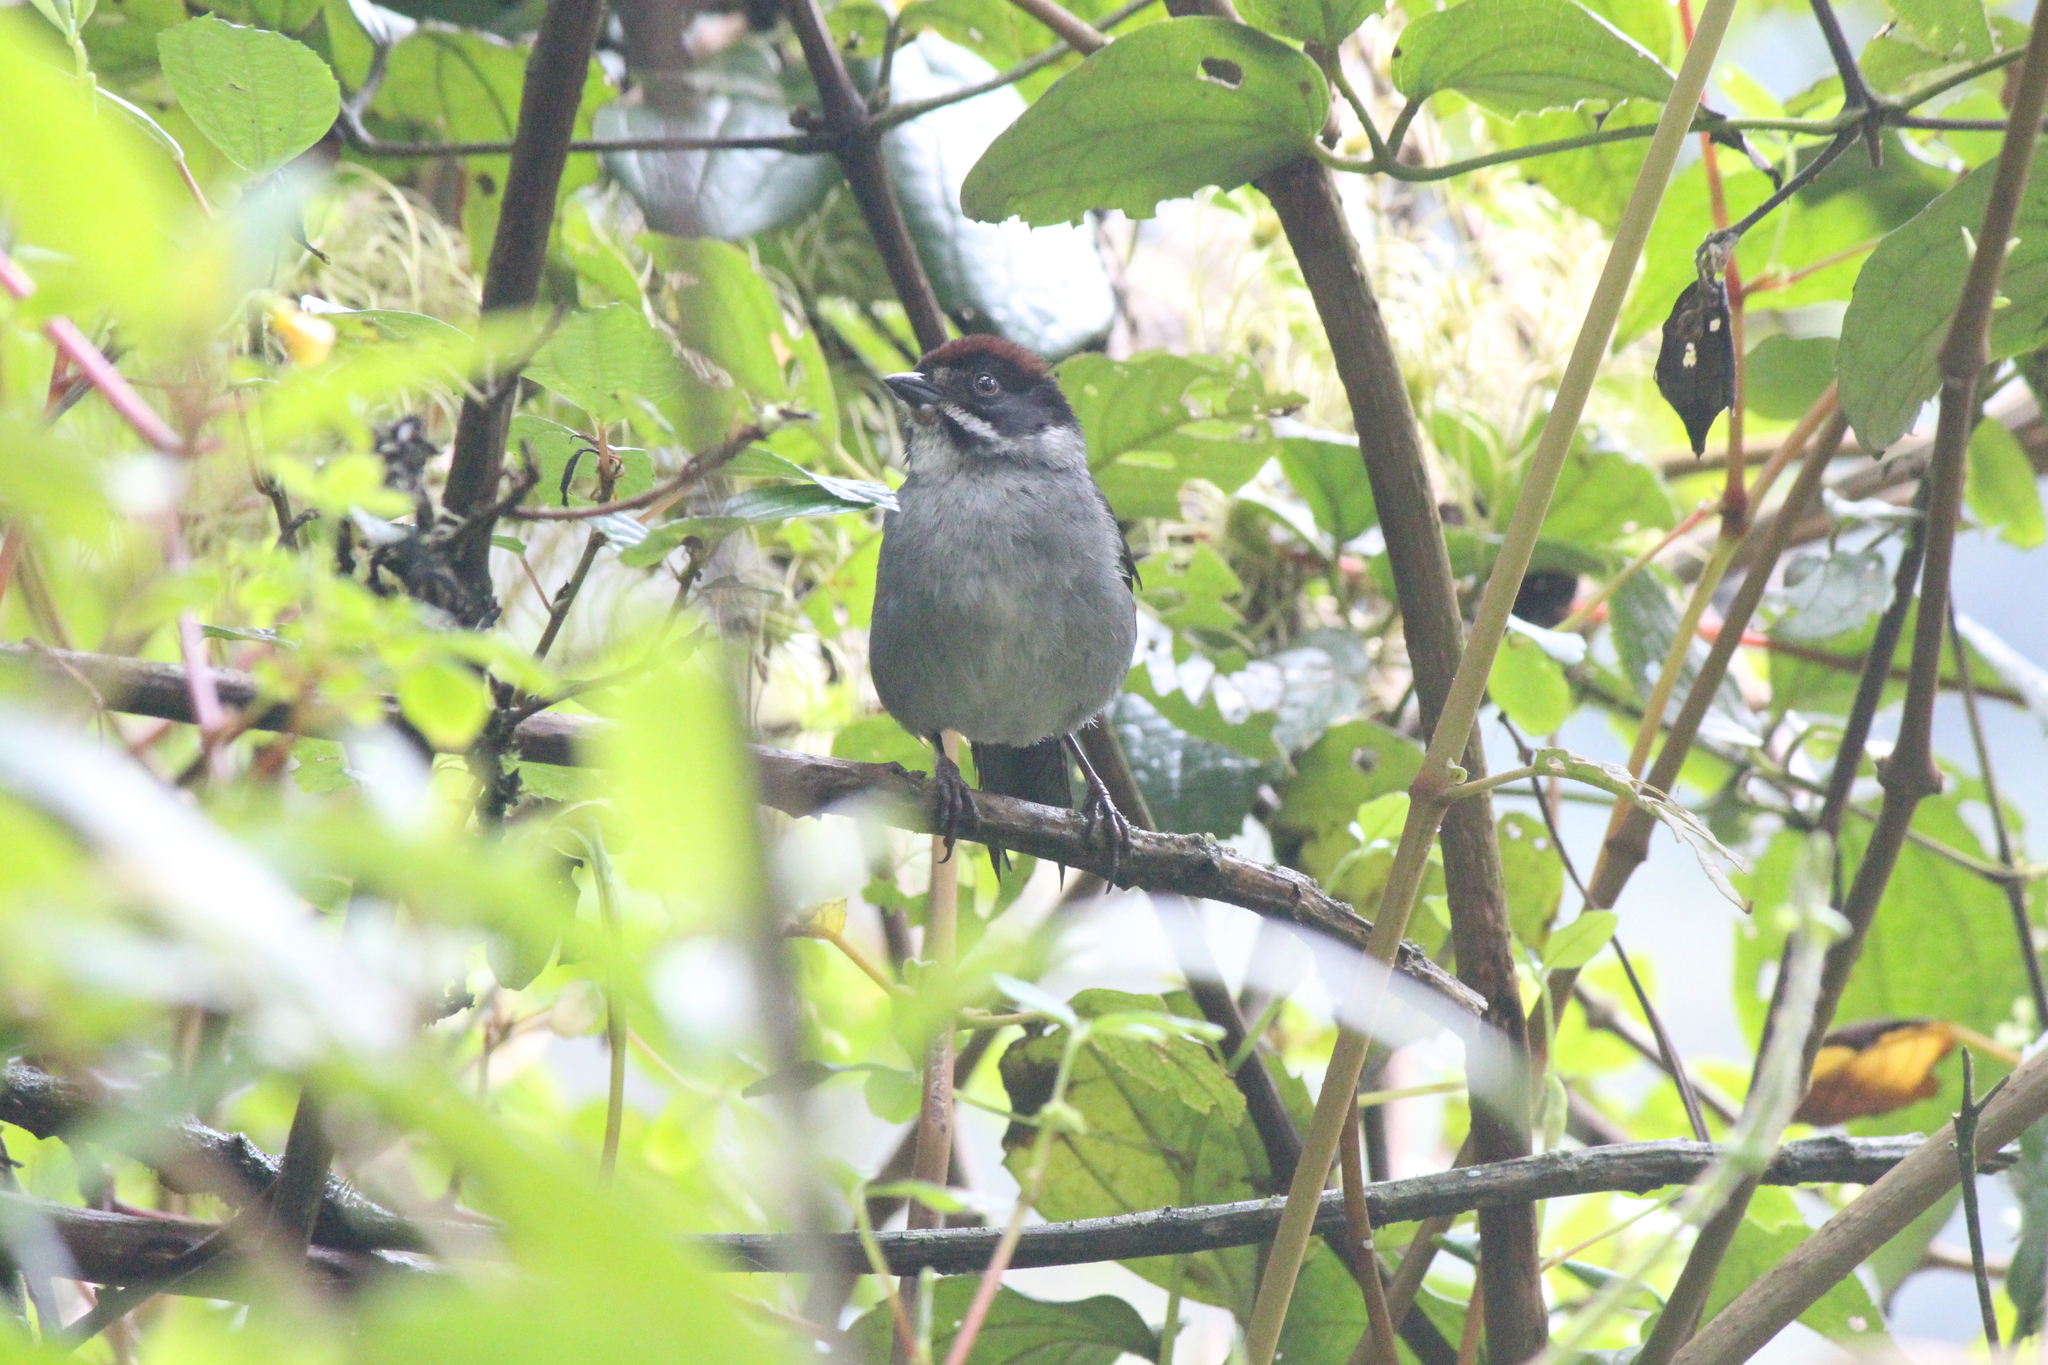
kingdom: Animalia
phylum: Chordata
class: Aves
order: Passeriformes
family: Passerellidae
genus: Atlapetes
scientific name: Atlapetes schistaceus
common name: Slaty brushfinch
